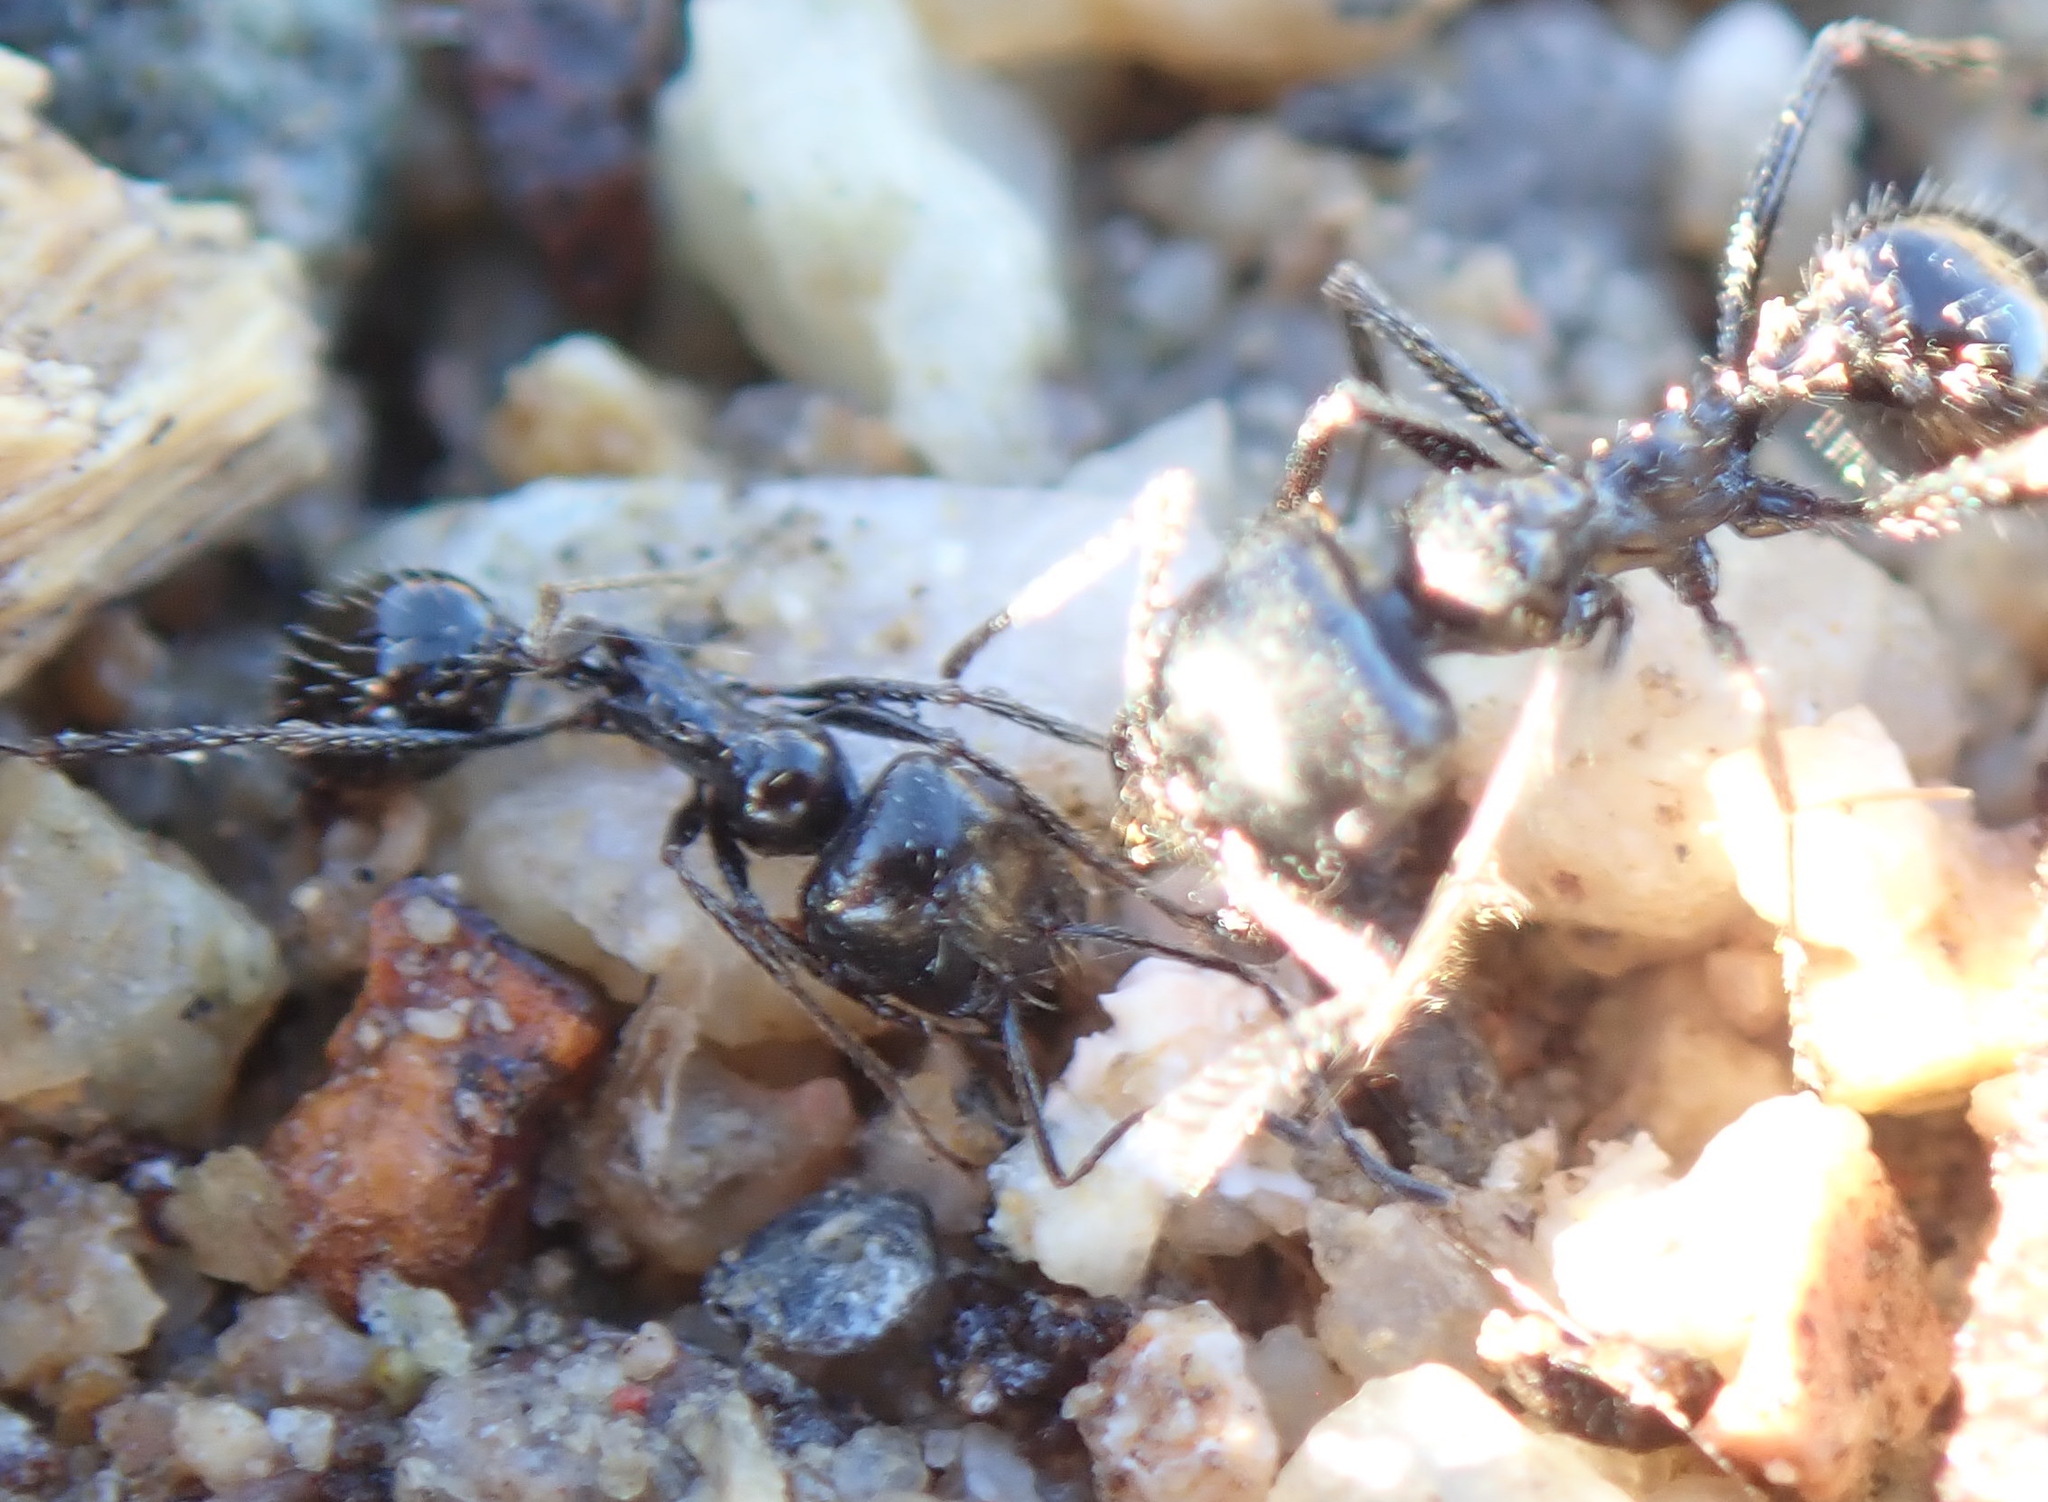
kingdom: Animalia
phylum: Arthropoda
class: Insecta
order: Hymenoptera
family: Formicidae
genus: Messor
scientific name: Messor pergandei
